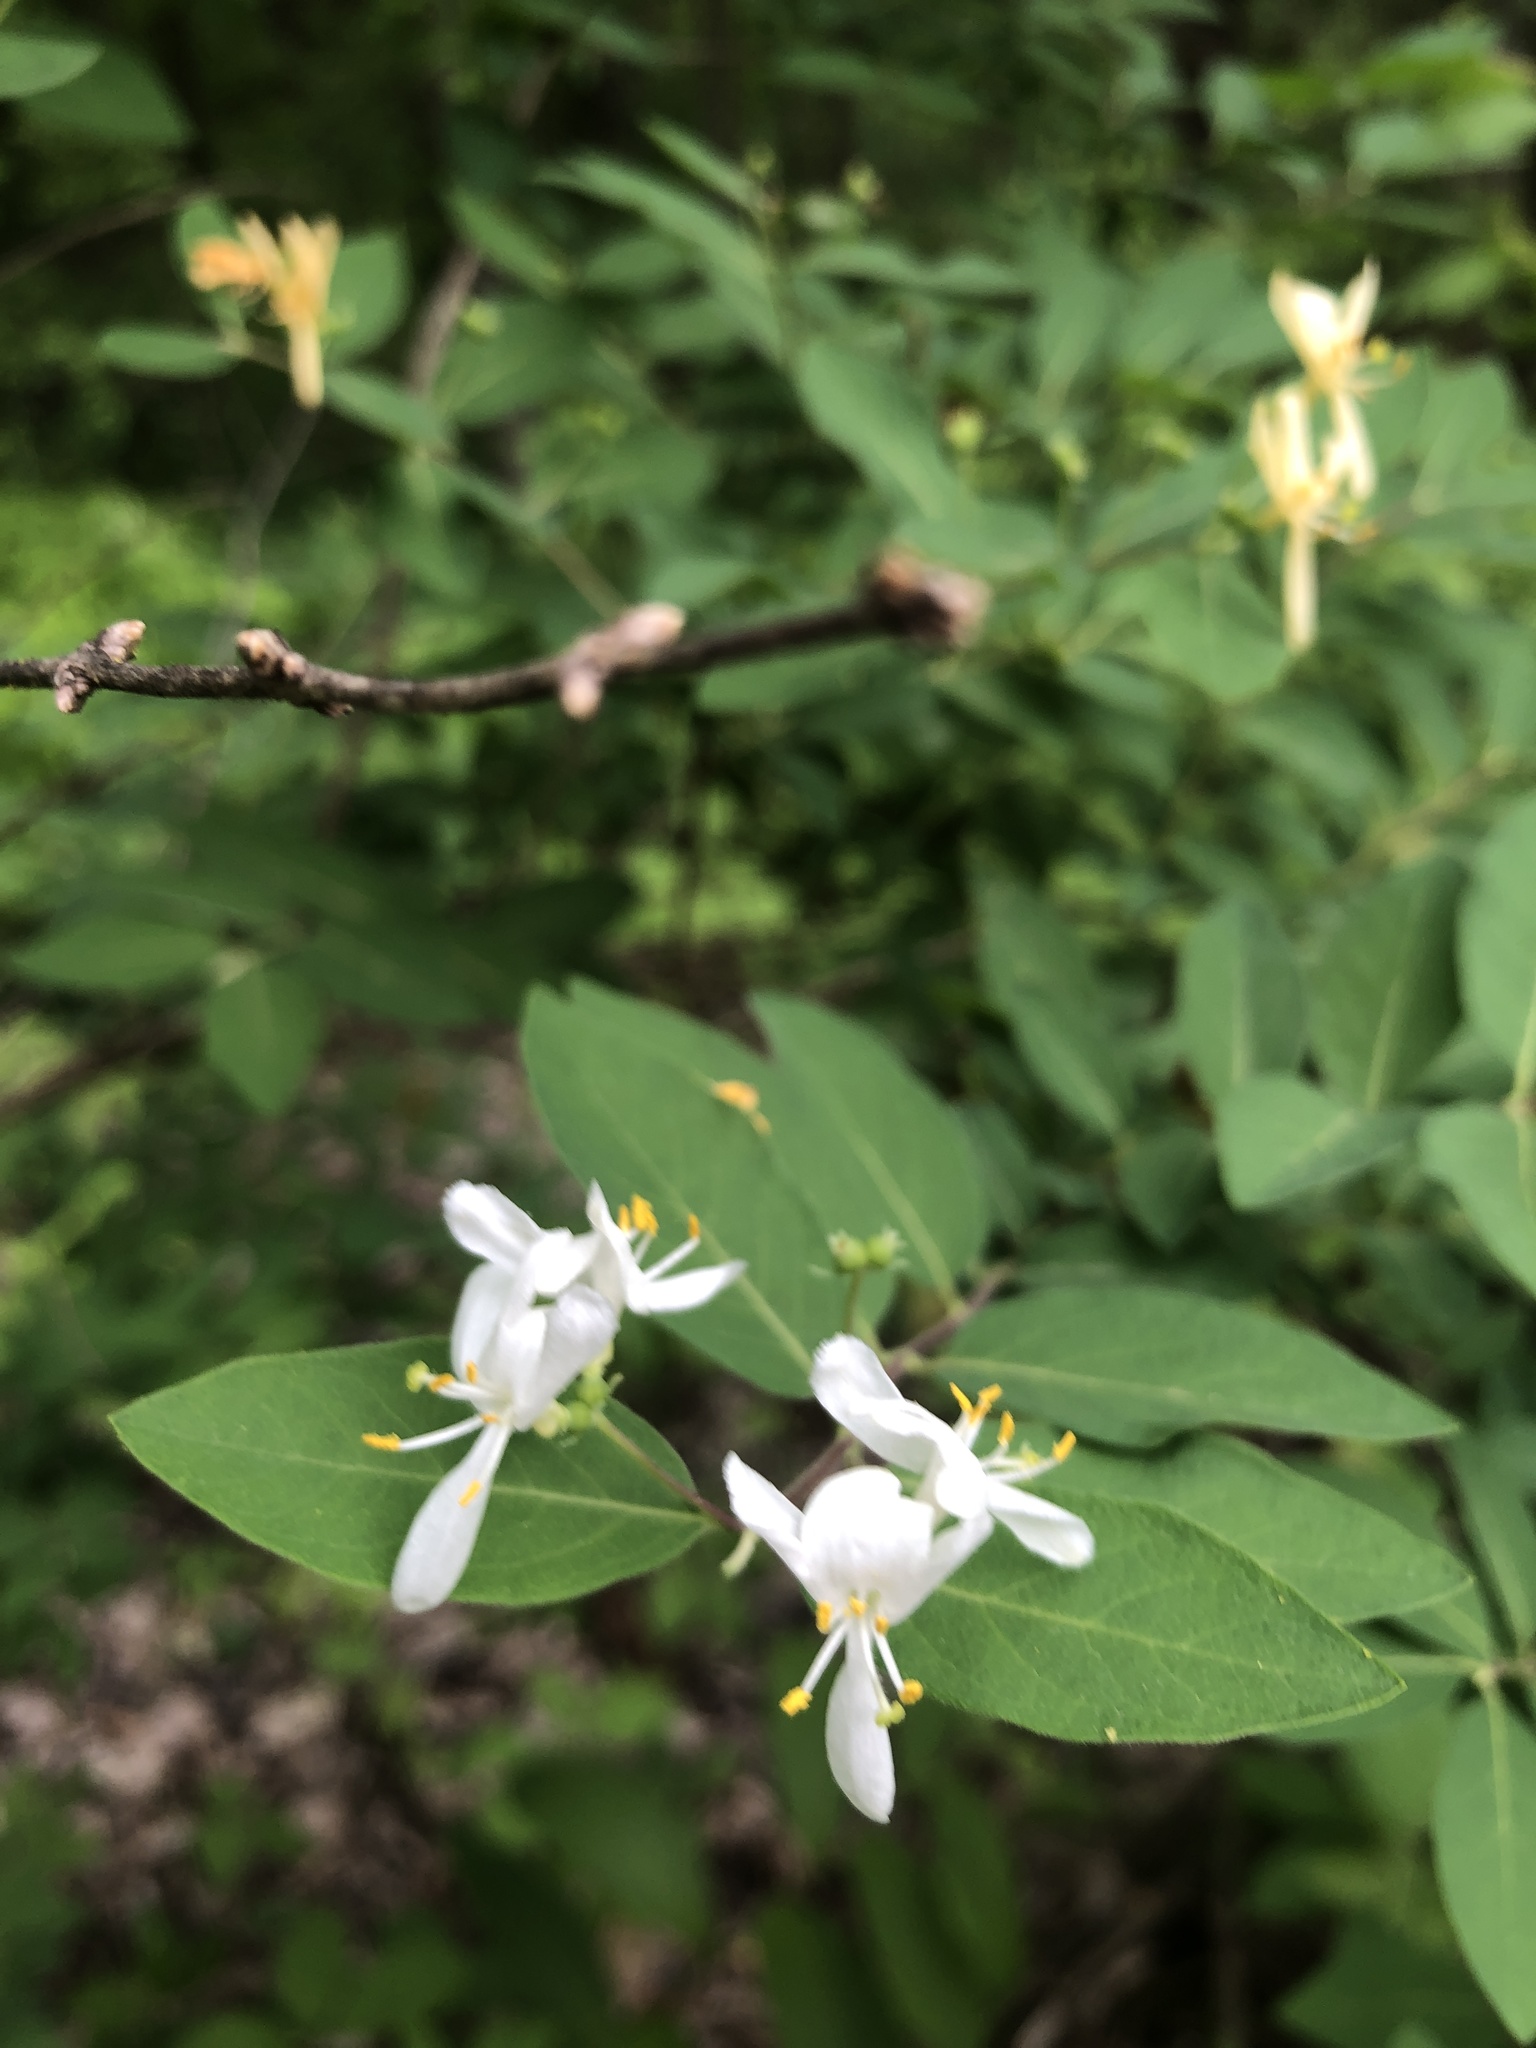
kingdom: Plantae
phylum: Tracheophyta
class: Magnoliopsida
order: Dipsacales
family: Caprifoliaceae
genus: Lonicera
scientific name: Lonicera morrowii
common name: Morrow's honeysuckle
